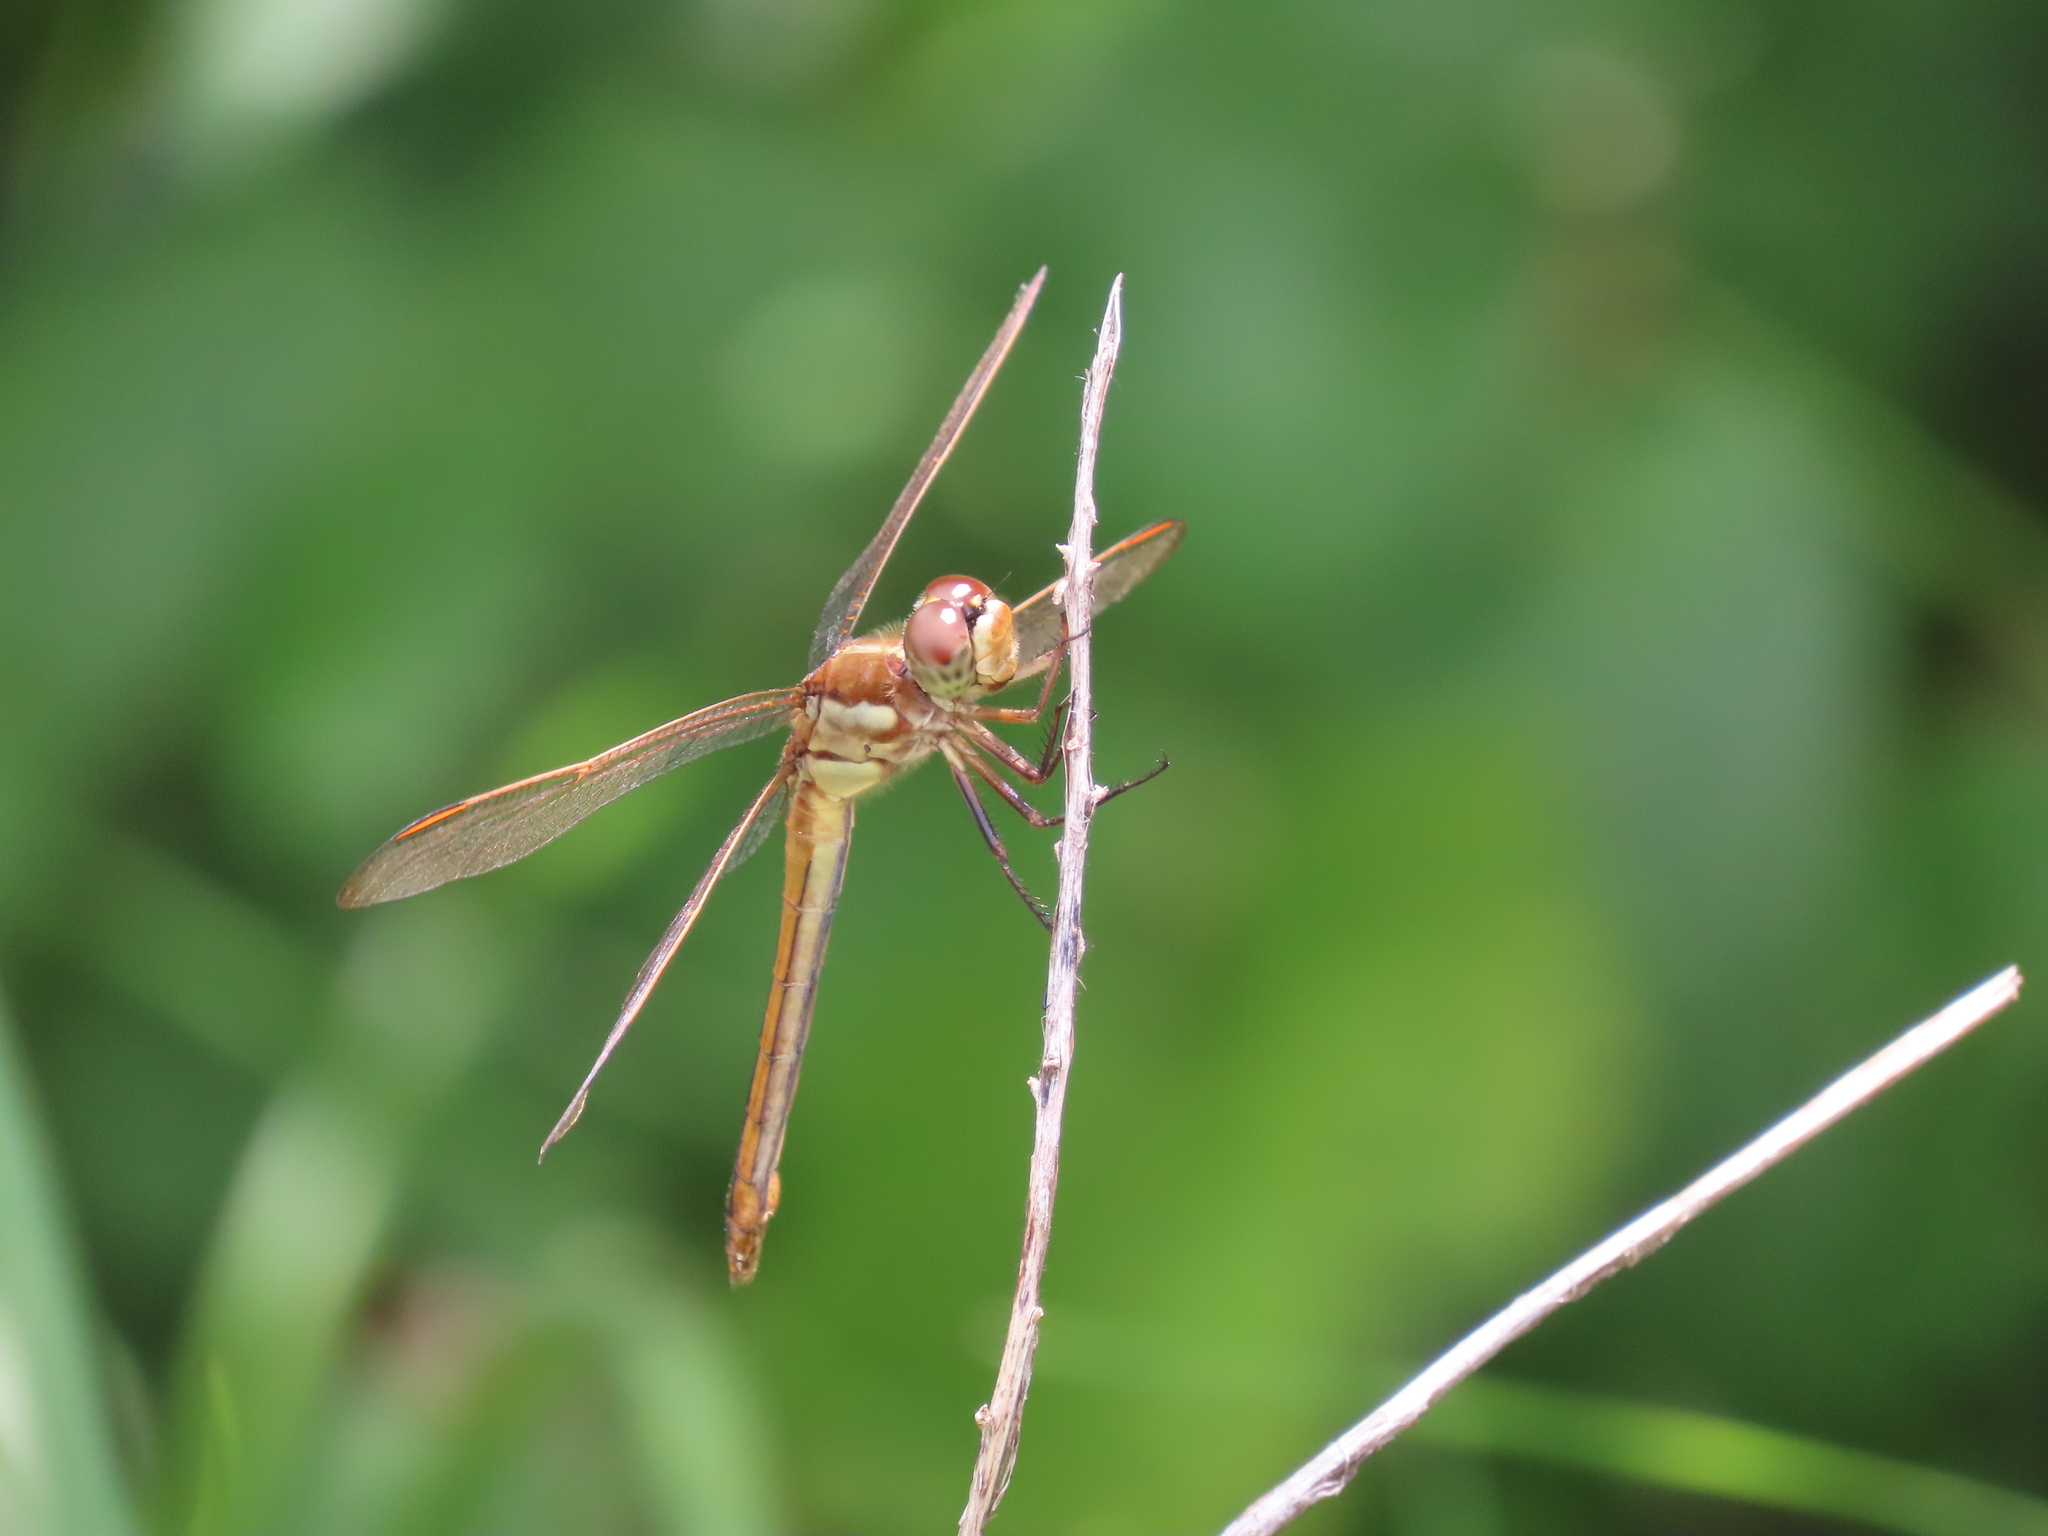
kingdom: Animalia
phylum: Arthropoda
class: Insecta
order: Odonata
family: Libellulidae
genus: Libellula
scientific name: Libellula auripennis
